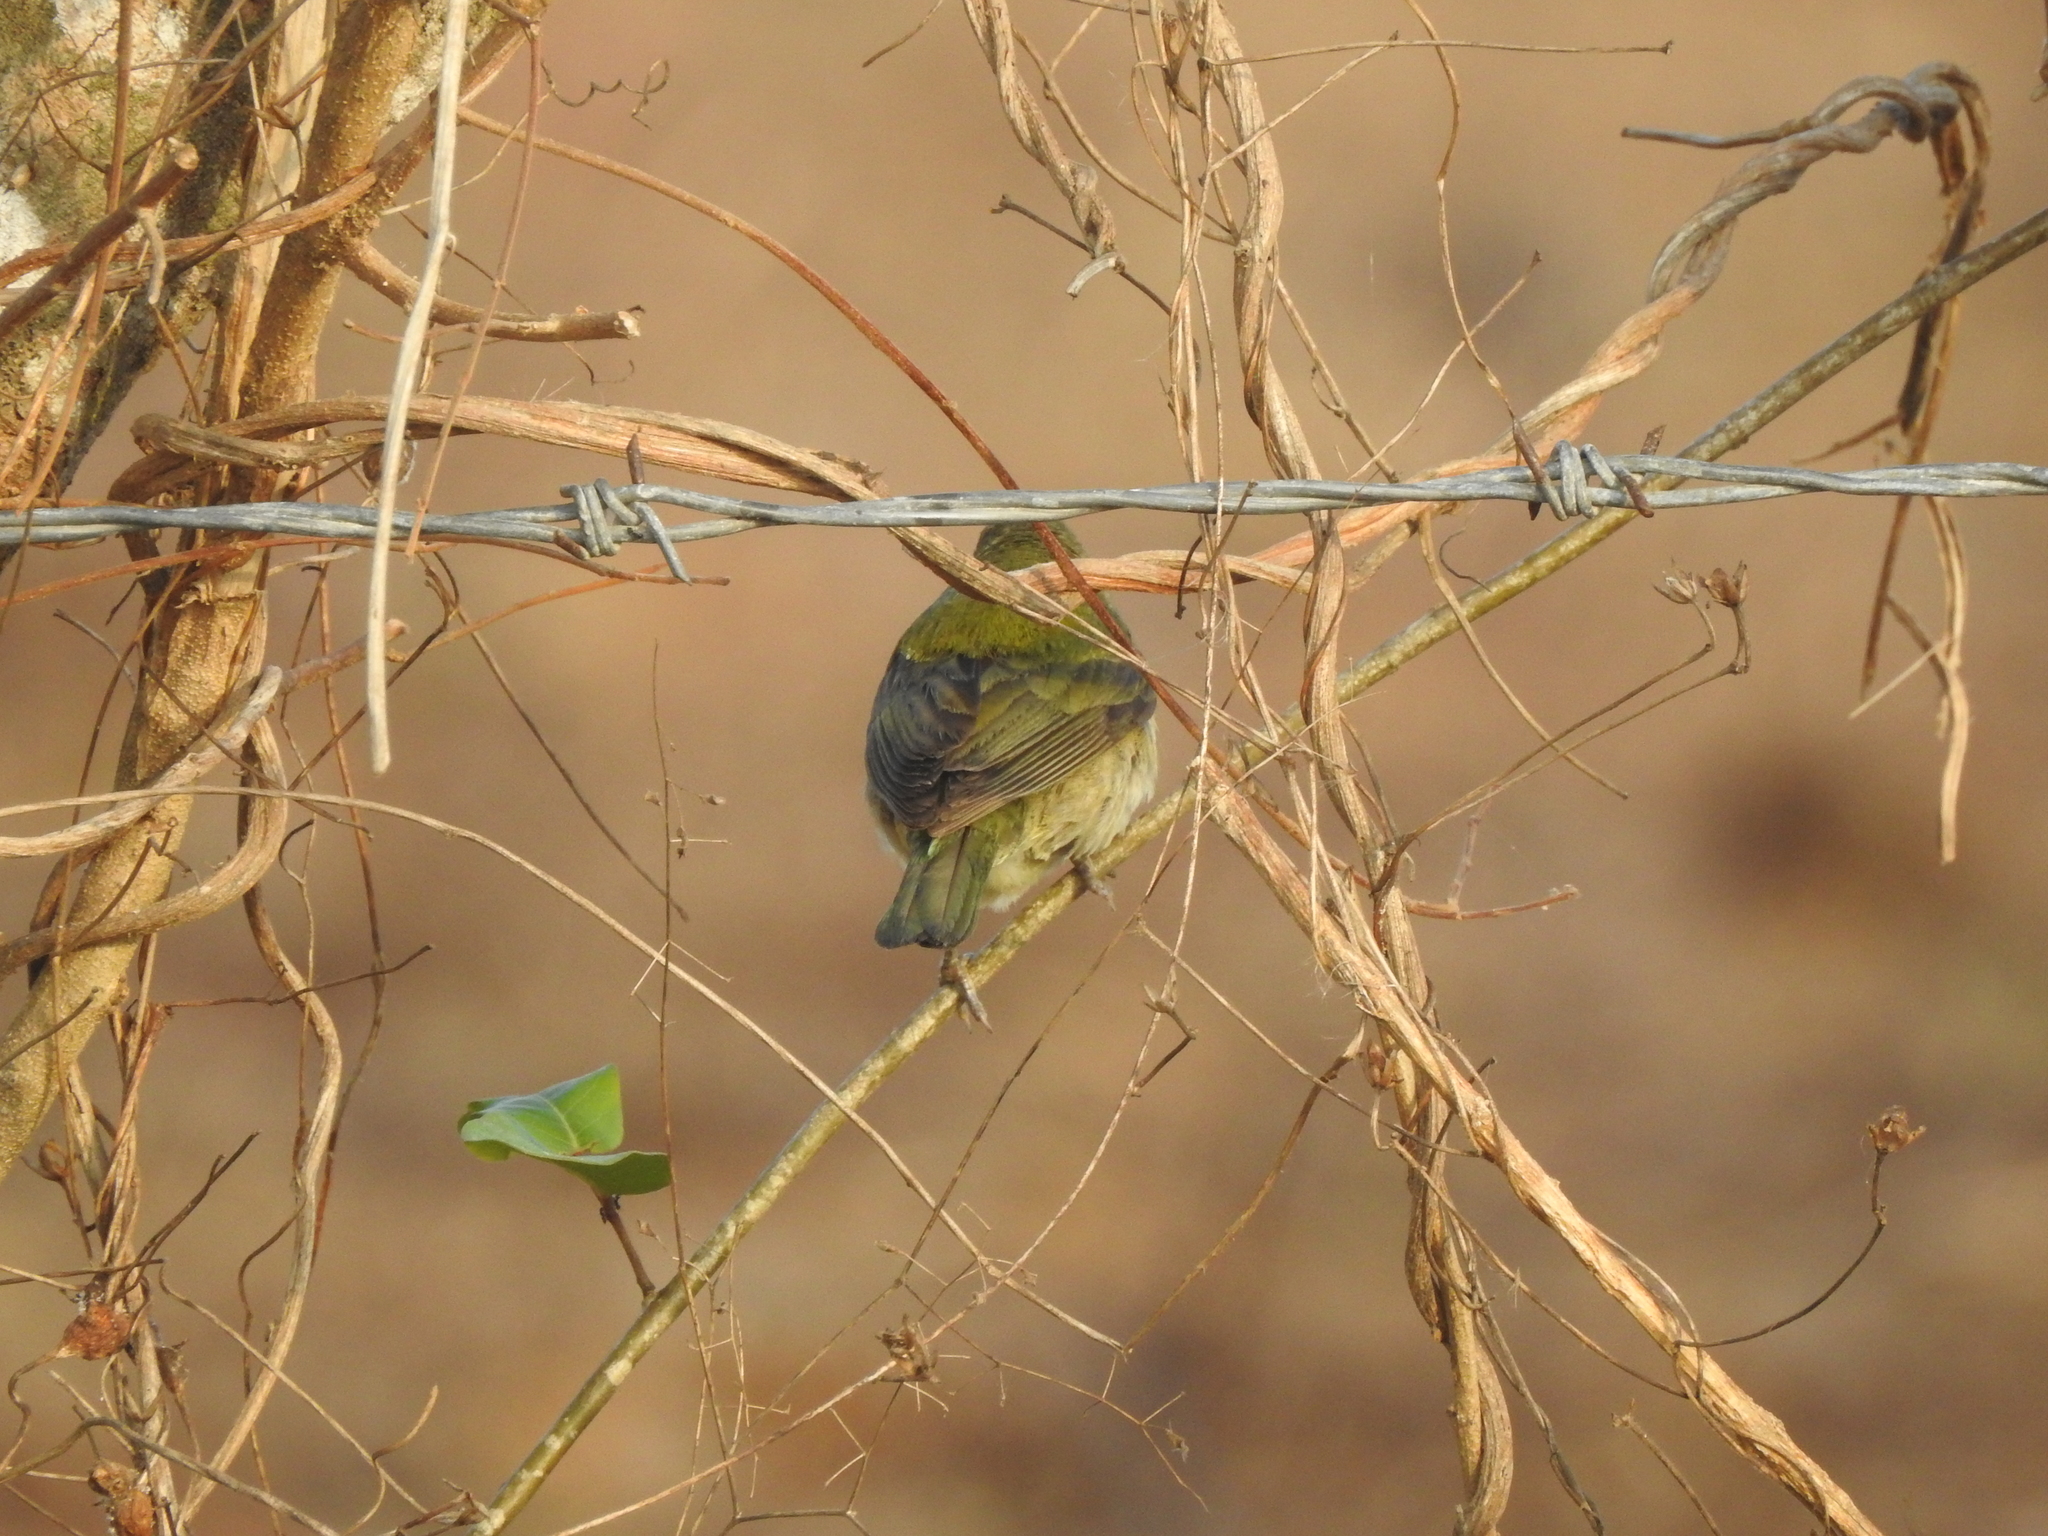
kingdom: Animalia
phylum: Chordata
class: Aves
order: Passeriformes
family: Cardinalidae
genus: Passerina
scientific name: Passerina ciris
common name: Painted bunting
